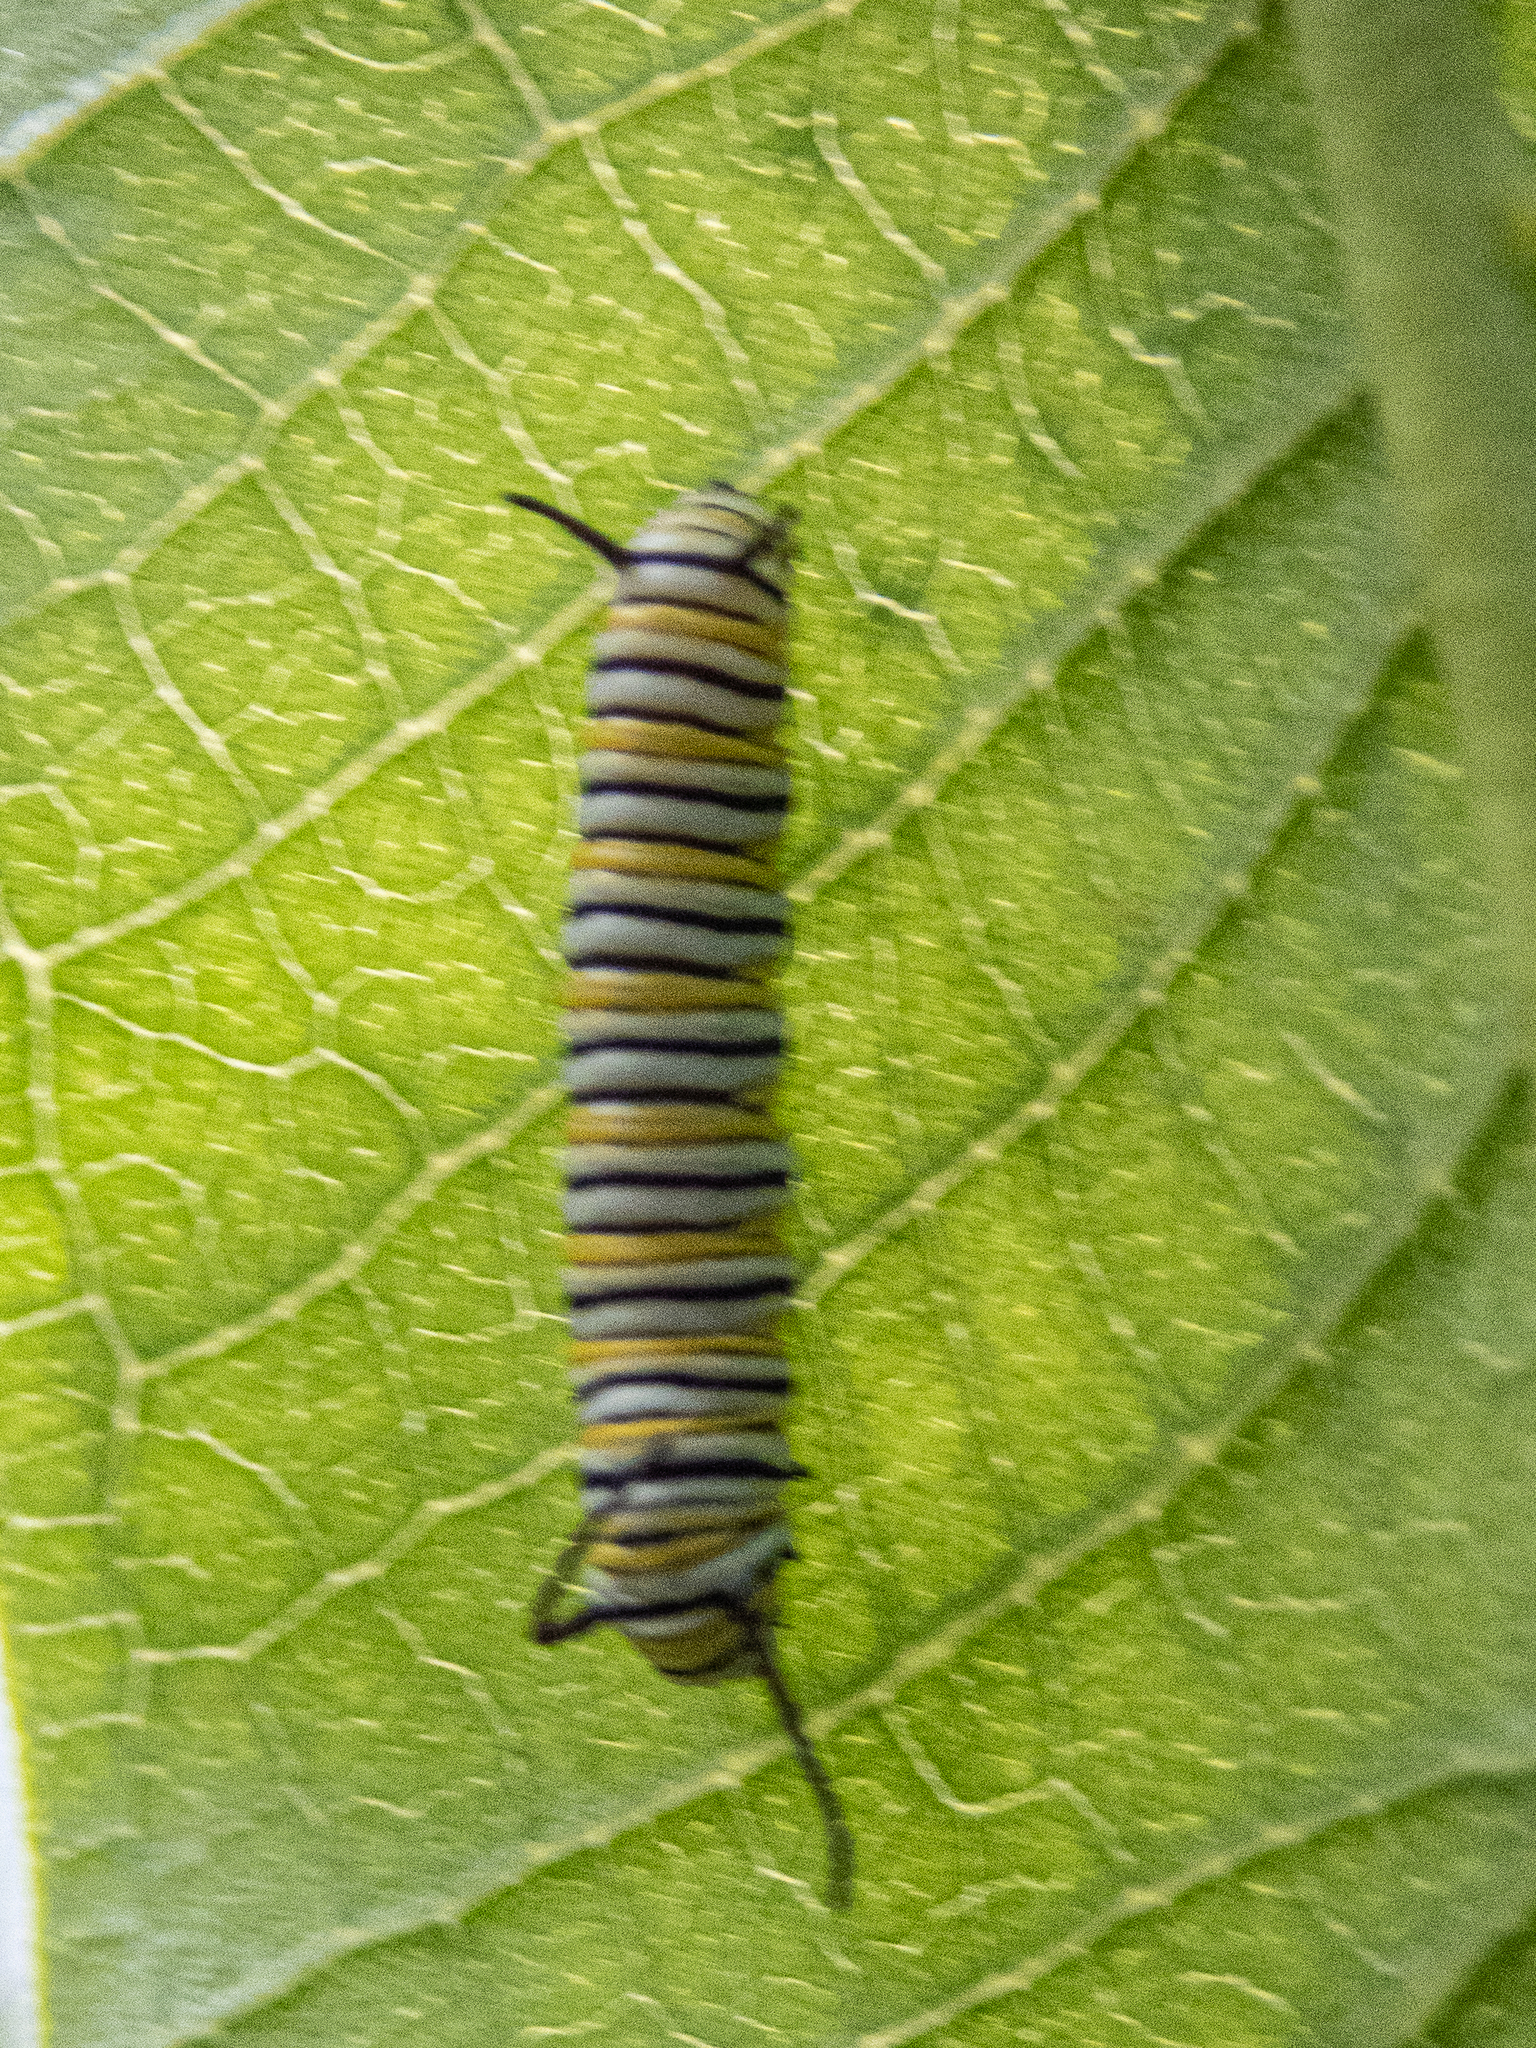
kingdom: Animalia
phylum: Arthropoda
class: Insecta
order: Lepidoptera
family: Nymphalidae
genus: Danaus
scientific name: Danaus plexippus
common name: Monarch
